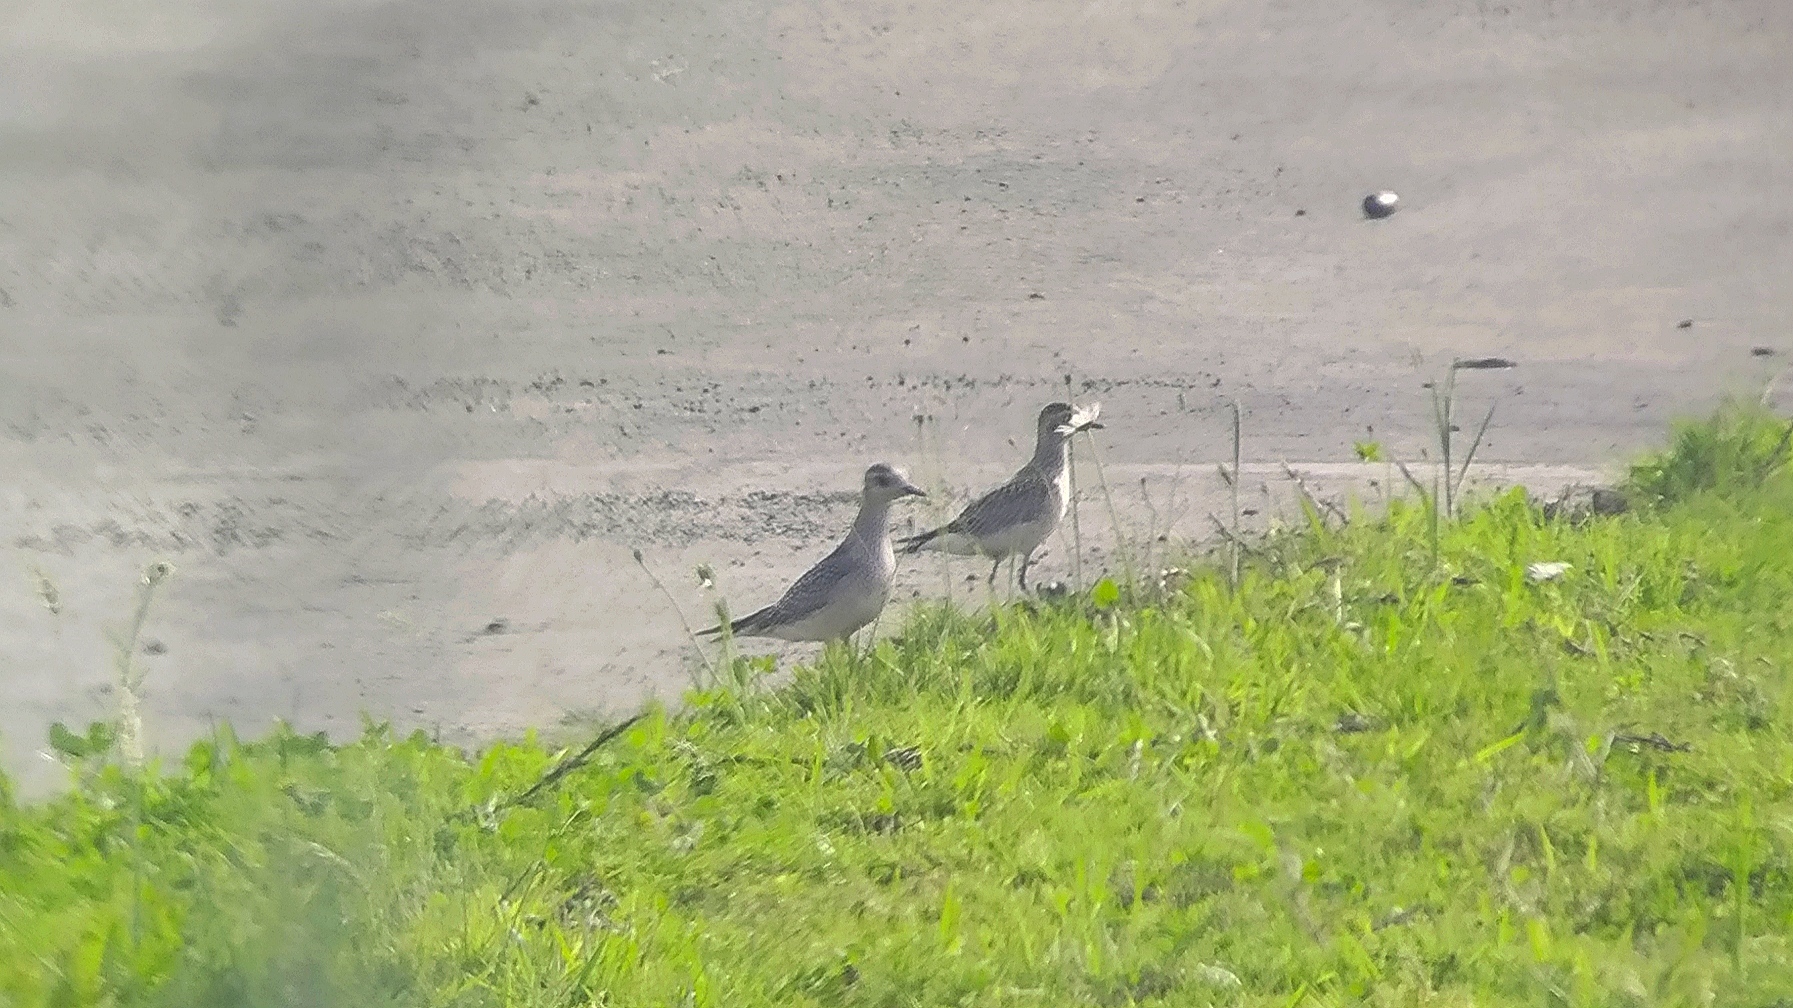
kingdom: Animalia
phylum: Chordata
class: Aves
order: Charadriiformes
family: Charadriidae
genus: Pluvialis
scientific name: Pluvialis dominica
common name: American golden plover
